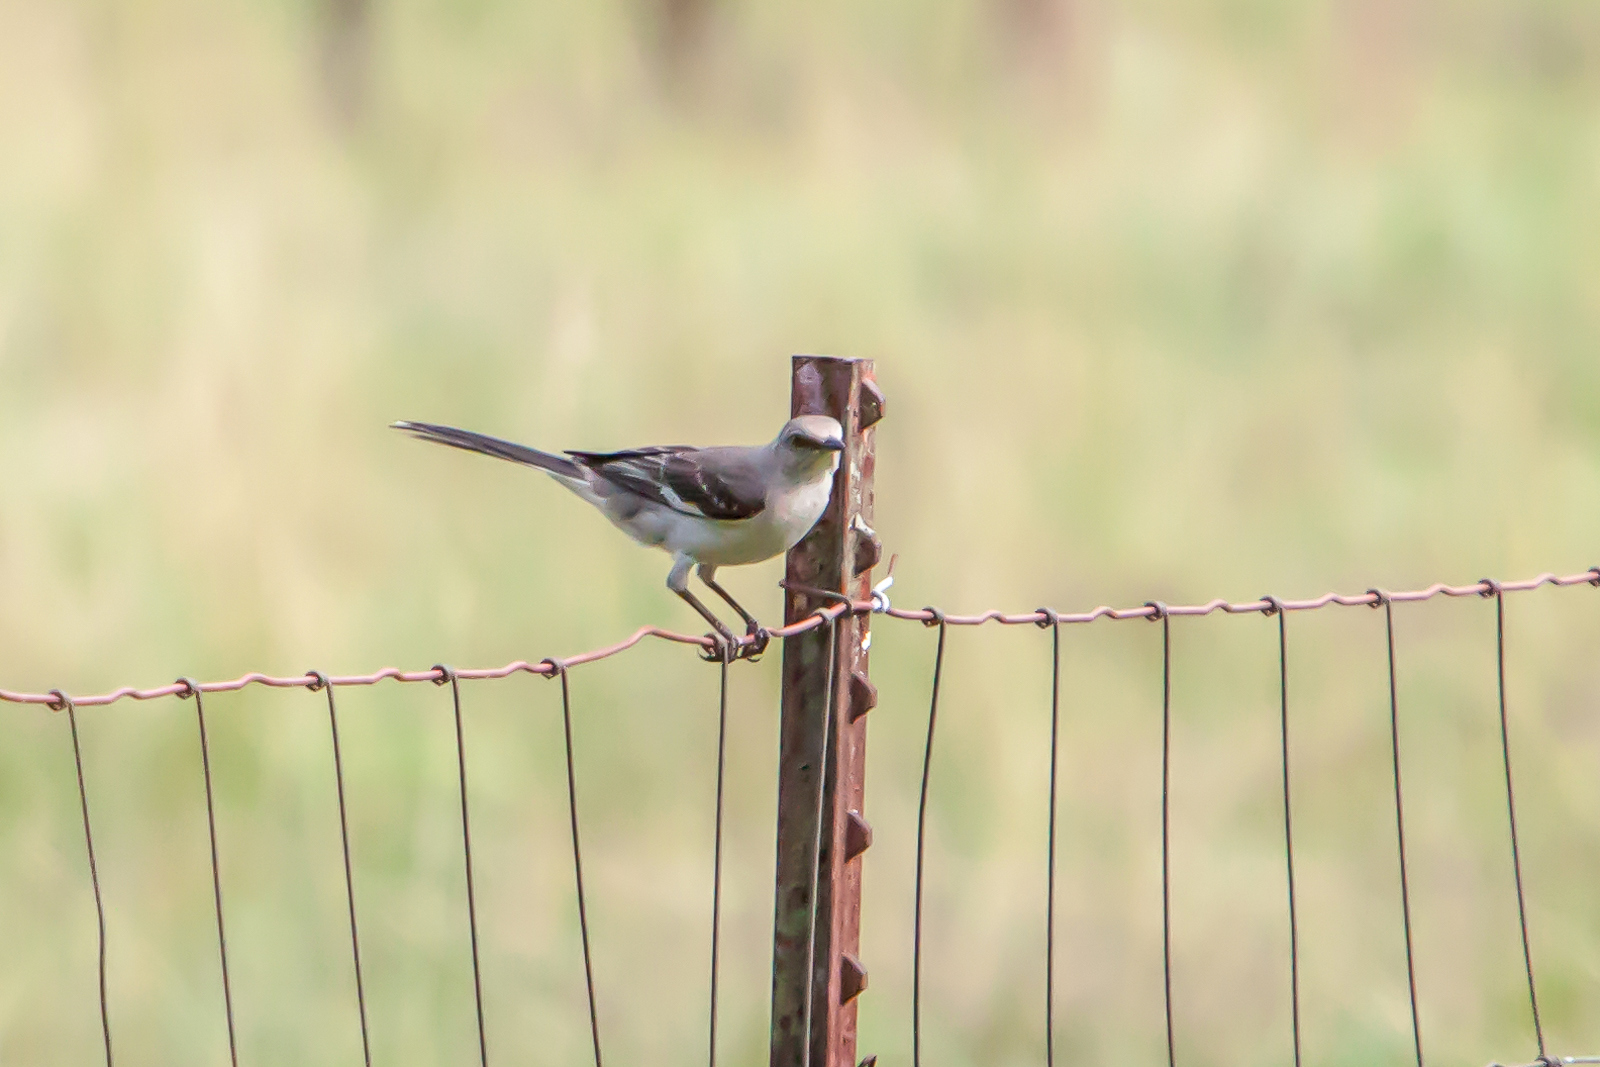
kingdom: Animalia
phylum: Chordata
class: Aves
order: Passeriformes
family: Mimidae
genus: Mimus
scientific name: Mimus polyglottos
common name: Northern mockingbird
